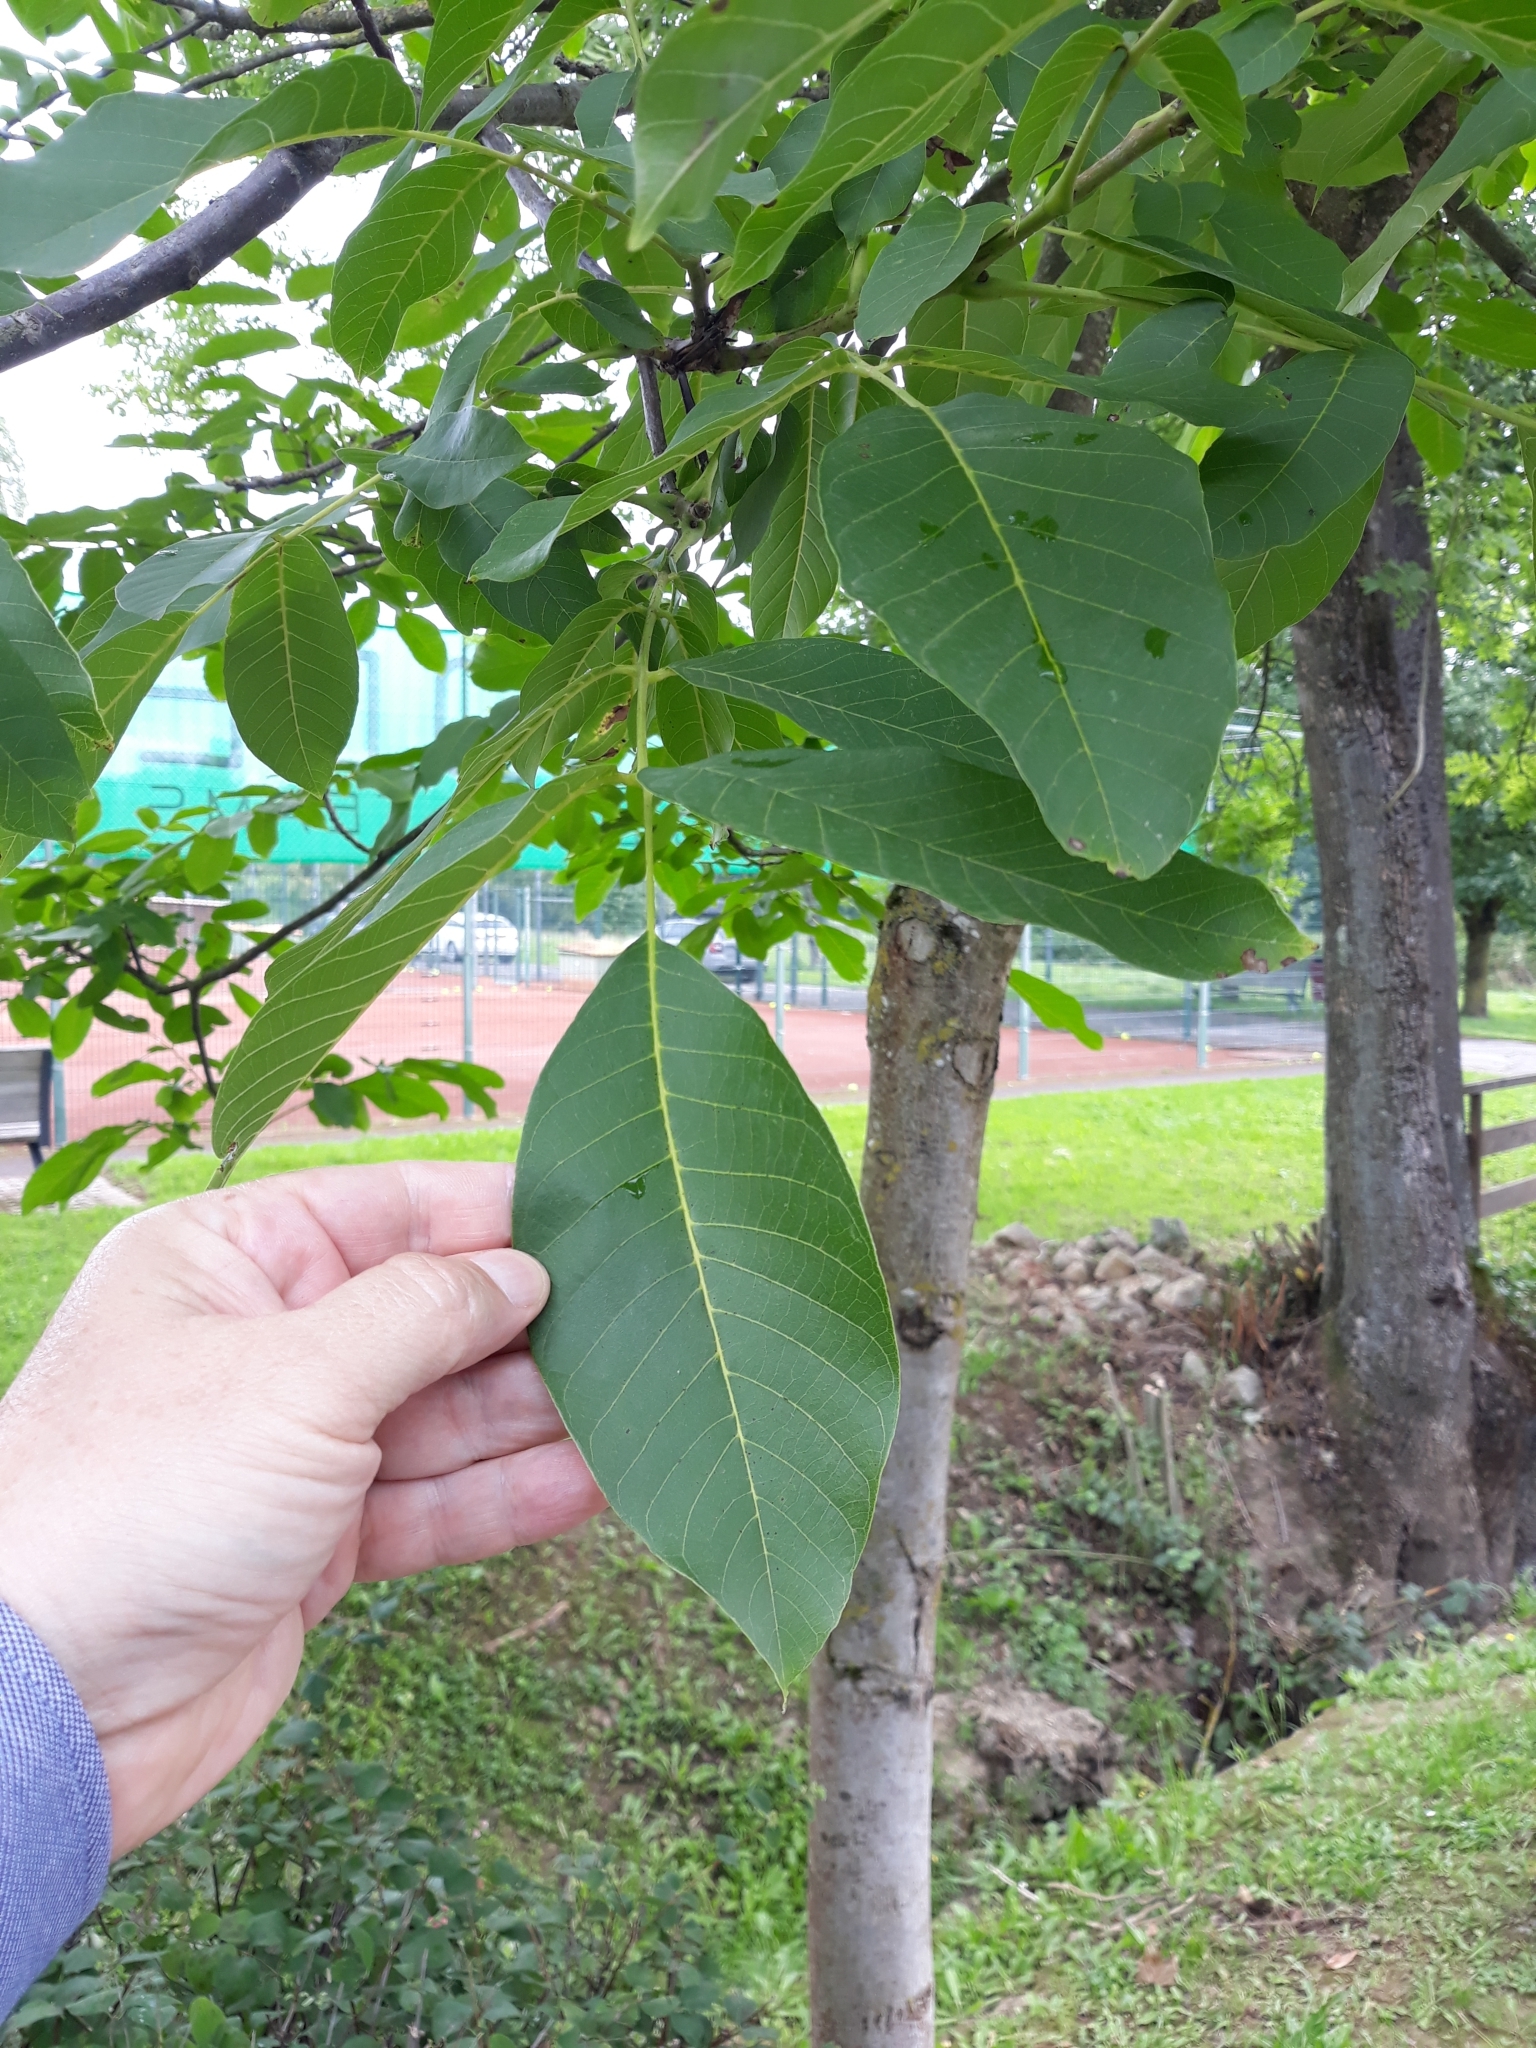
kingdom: Plantae
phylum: Tracheophyta
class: Magnoliopsida
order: Fagales
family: Juglandaceae
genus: Juglans
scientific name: Juglans regia
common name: Walnut
